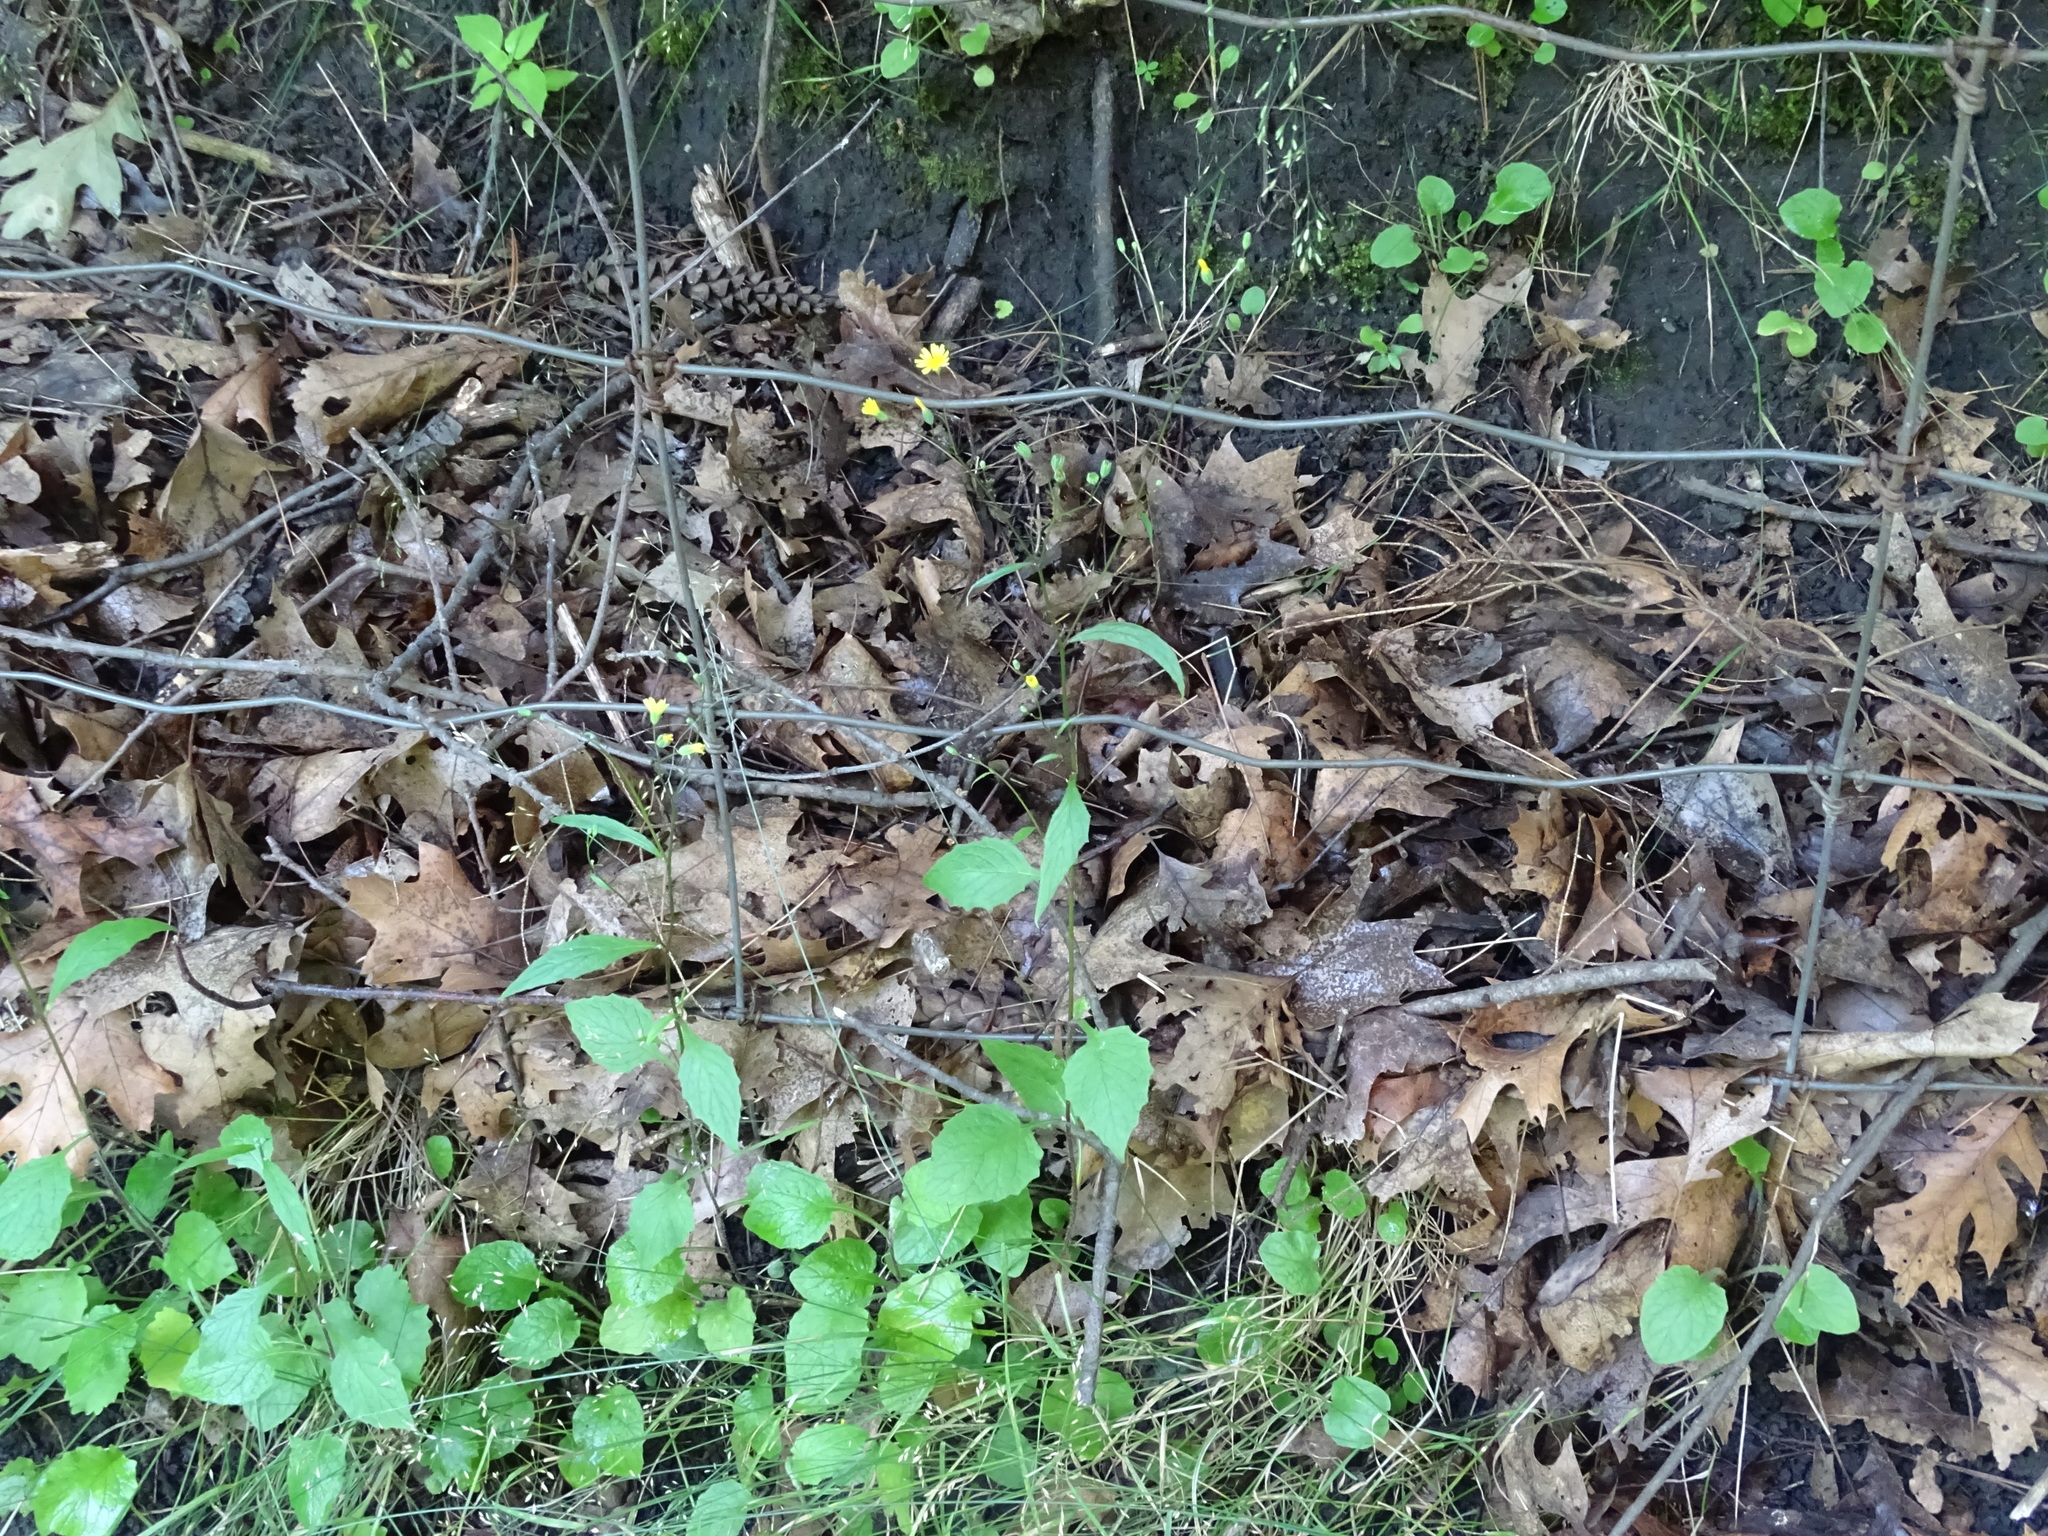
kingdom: Plantae
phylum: Tracheophyta
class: Magnoliopsida
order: Asterales
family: Asteraceae
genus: Lapsana
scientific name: Lapsana communis
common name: Nipplewort
